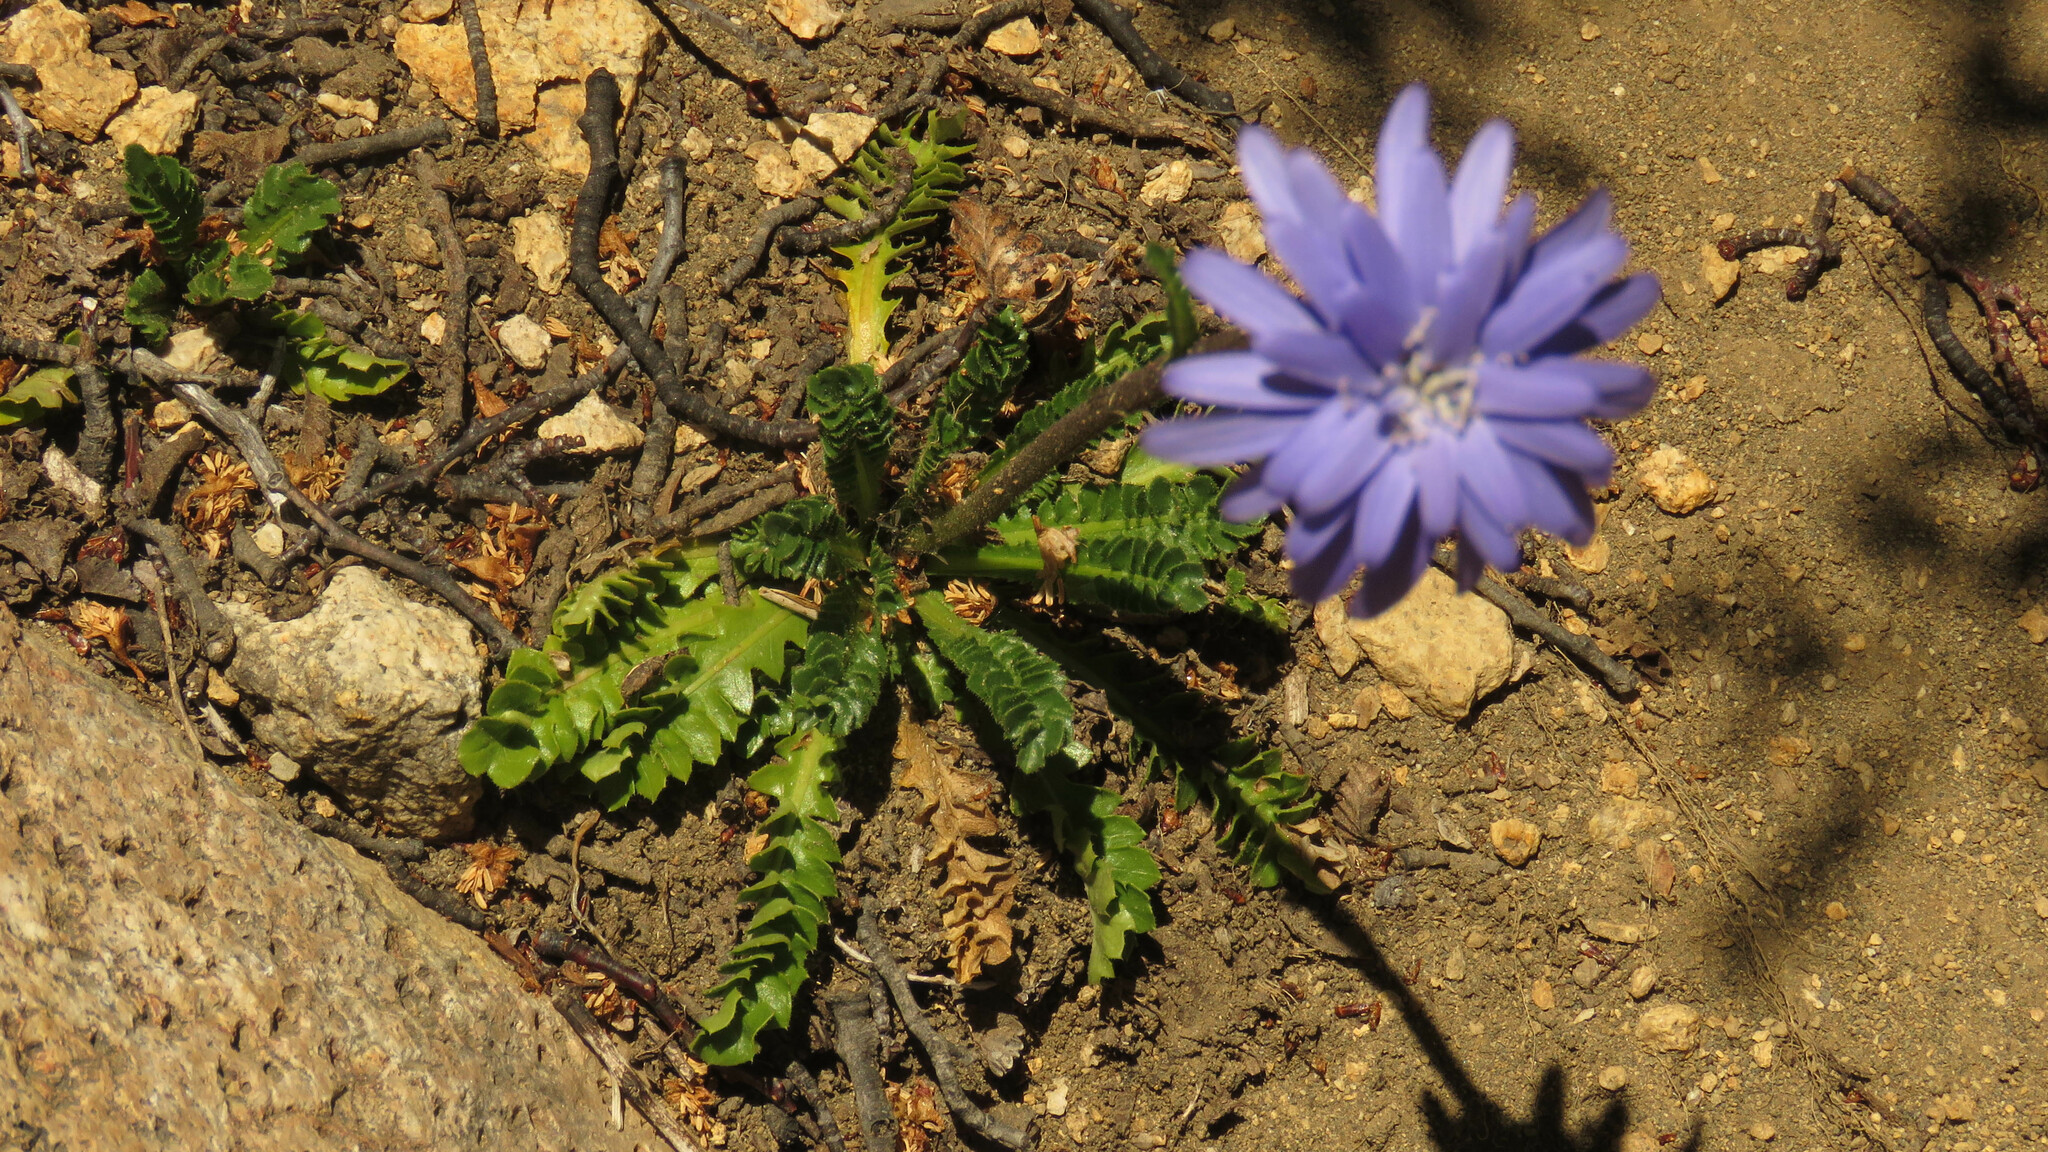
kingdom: Plantae
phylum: Tracheophyta
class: Magnoliopsida
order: Asterales
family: Asteraceae
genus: Perezia
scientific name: Perezia pedicularidifolia
